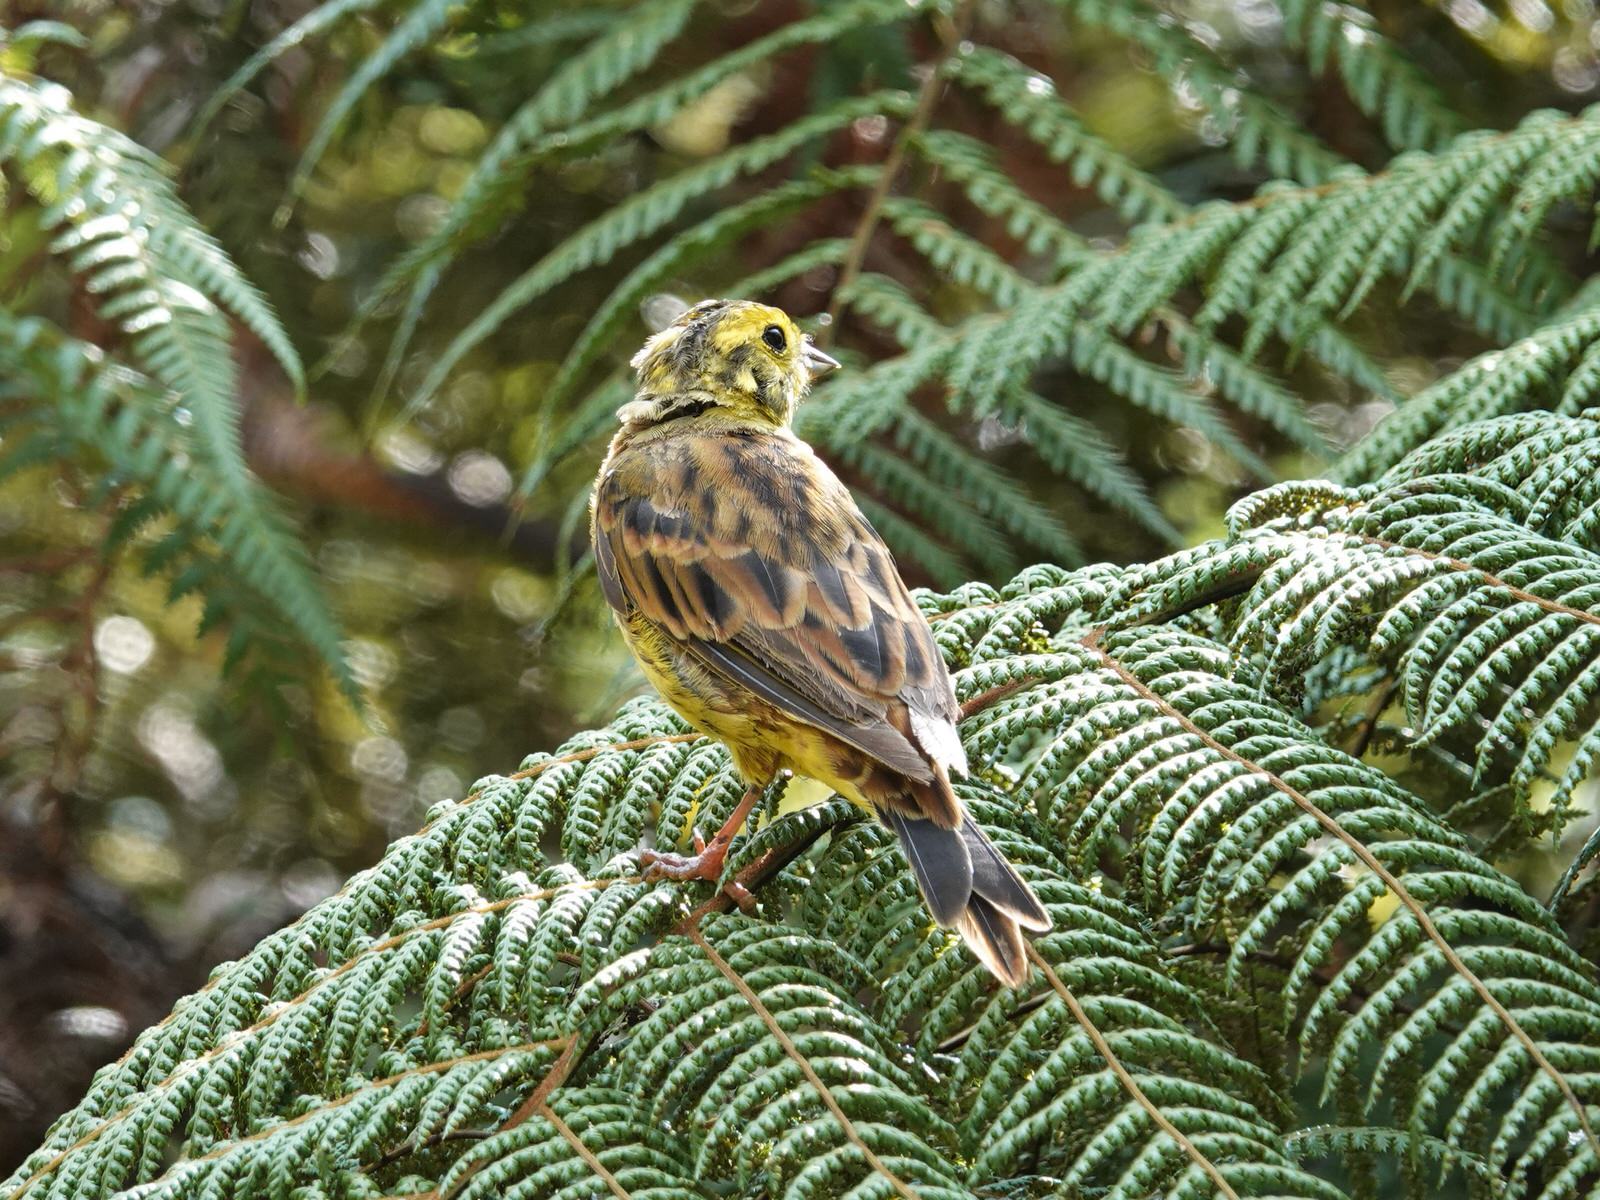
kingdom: Animalia
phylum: Chordata
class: Aves
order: Passeriformes
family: Emberizidae
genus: Emberiza
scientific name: Emberiza citrinella
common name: Yellowhammer
